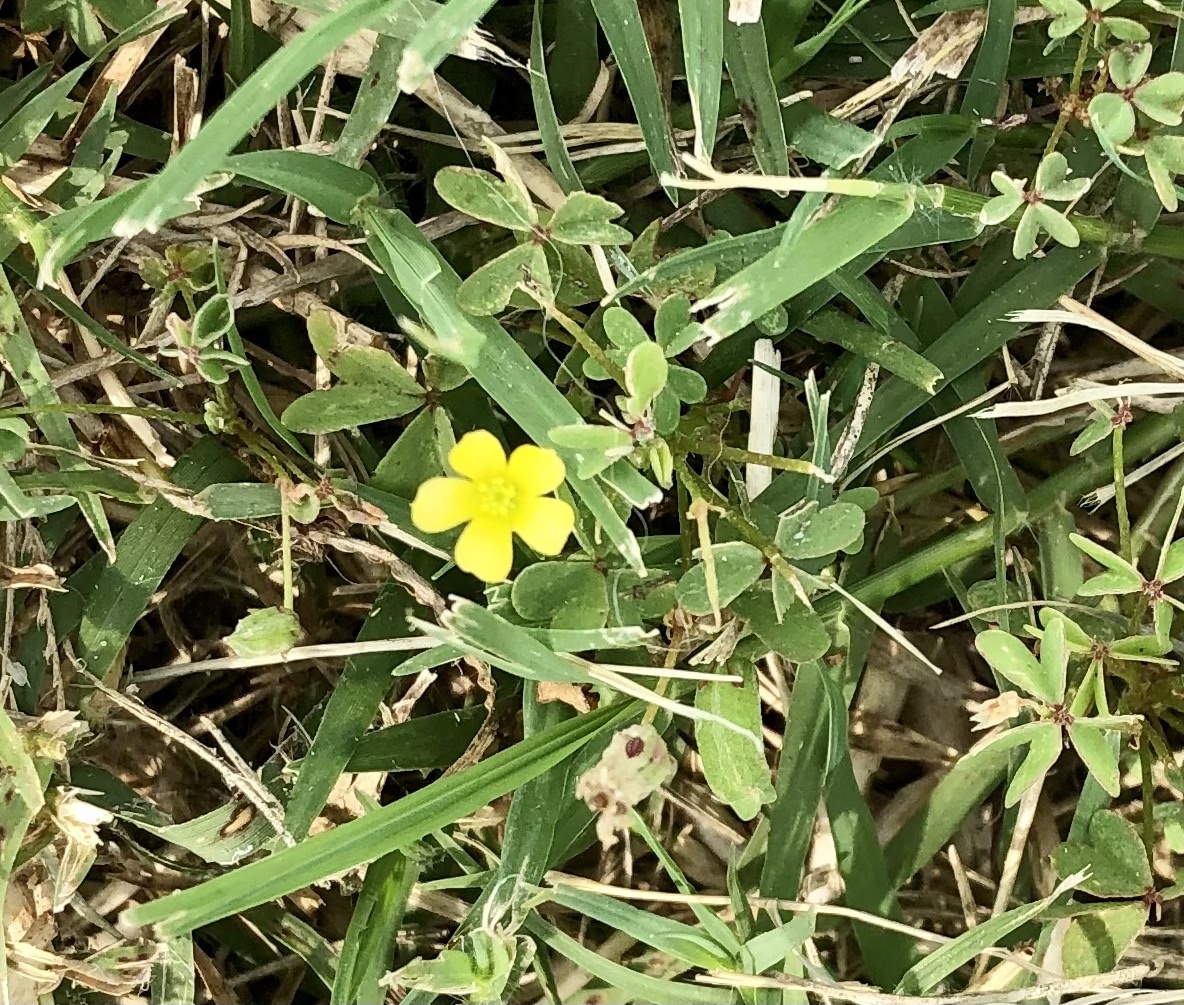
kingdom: Plantae
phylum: Tracheophyta
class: Magnoliopsida
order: Oxalidales
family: Oxalidaceae
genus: Oxalis
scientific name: Oxalis dillenii
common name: Sussex yellow-sorrel
